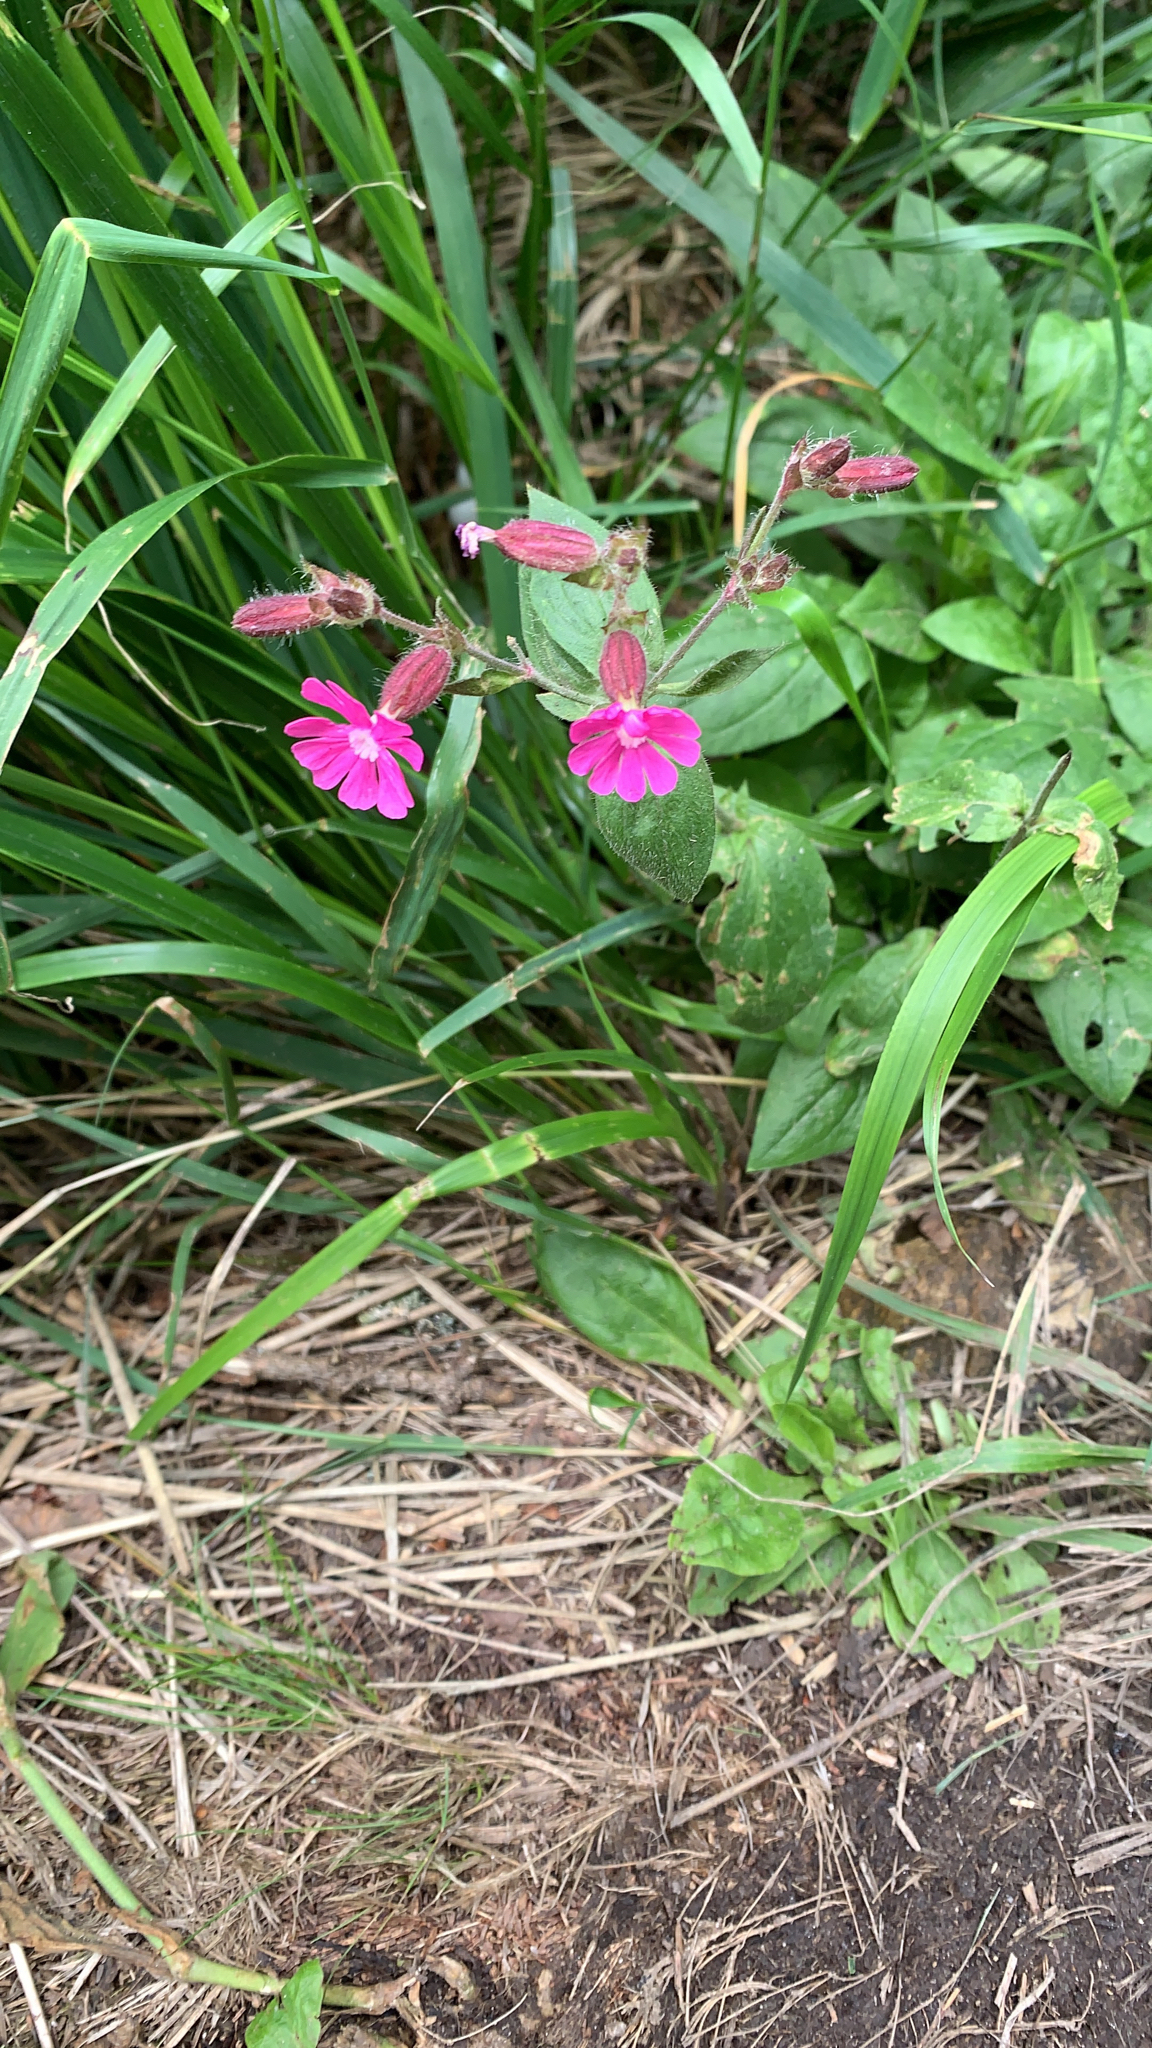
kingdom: Plantae
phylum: Tracheophyta
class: Magnoliopsida
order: Caryophyllales
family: Caryophyllaceae
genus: Silene
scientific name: Silene dioica
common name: Red campion
